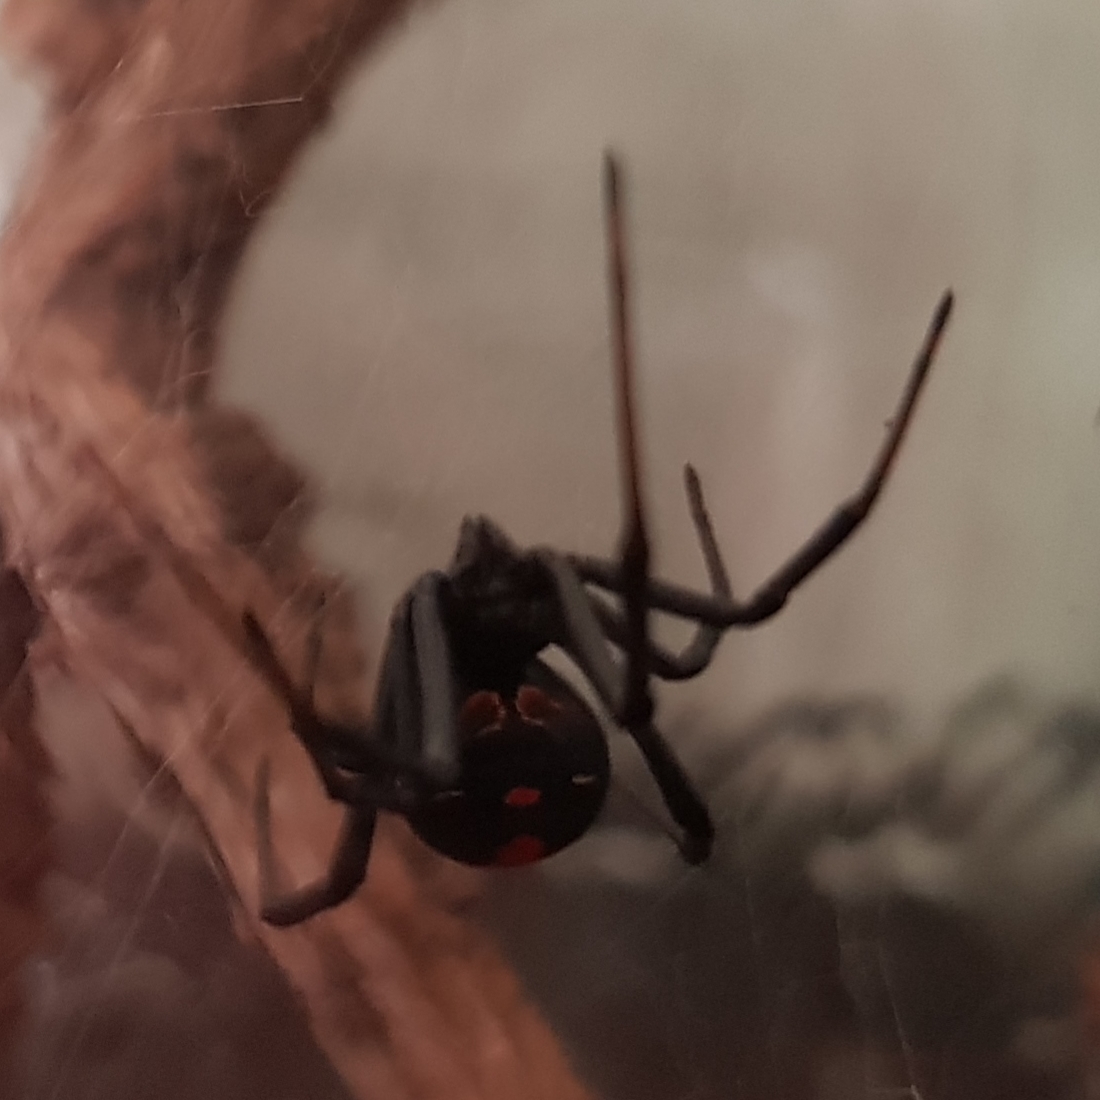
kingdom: Animalia
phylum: Arthropoda
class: Arachnida
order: Araneae
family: Theridiidae
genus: Latrodectus
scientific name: Latrodectus hasselti
